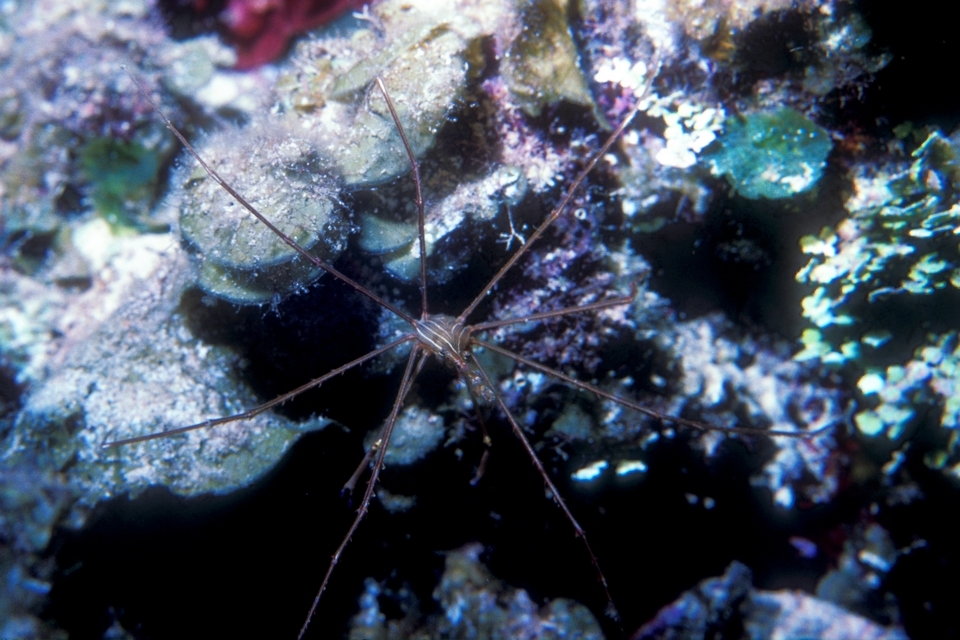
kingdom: Animalia
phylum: Arthropoda
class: Malacostraca
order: Decapoda
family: Inachoididae
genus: Stenorhynchus
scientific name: Stenorhynchus seticornis
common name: Arrow crab
